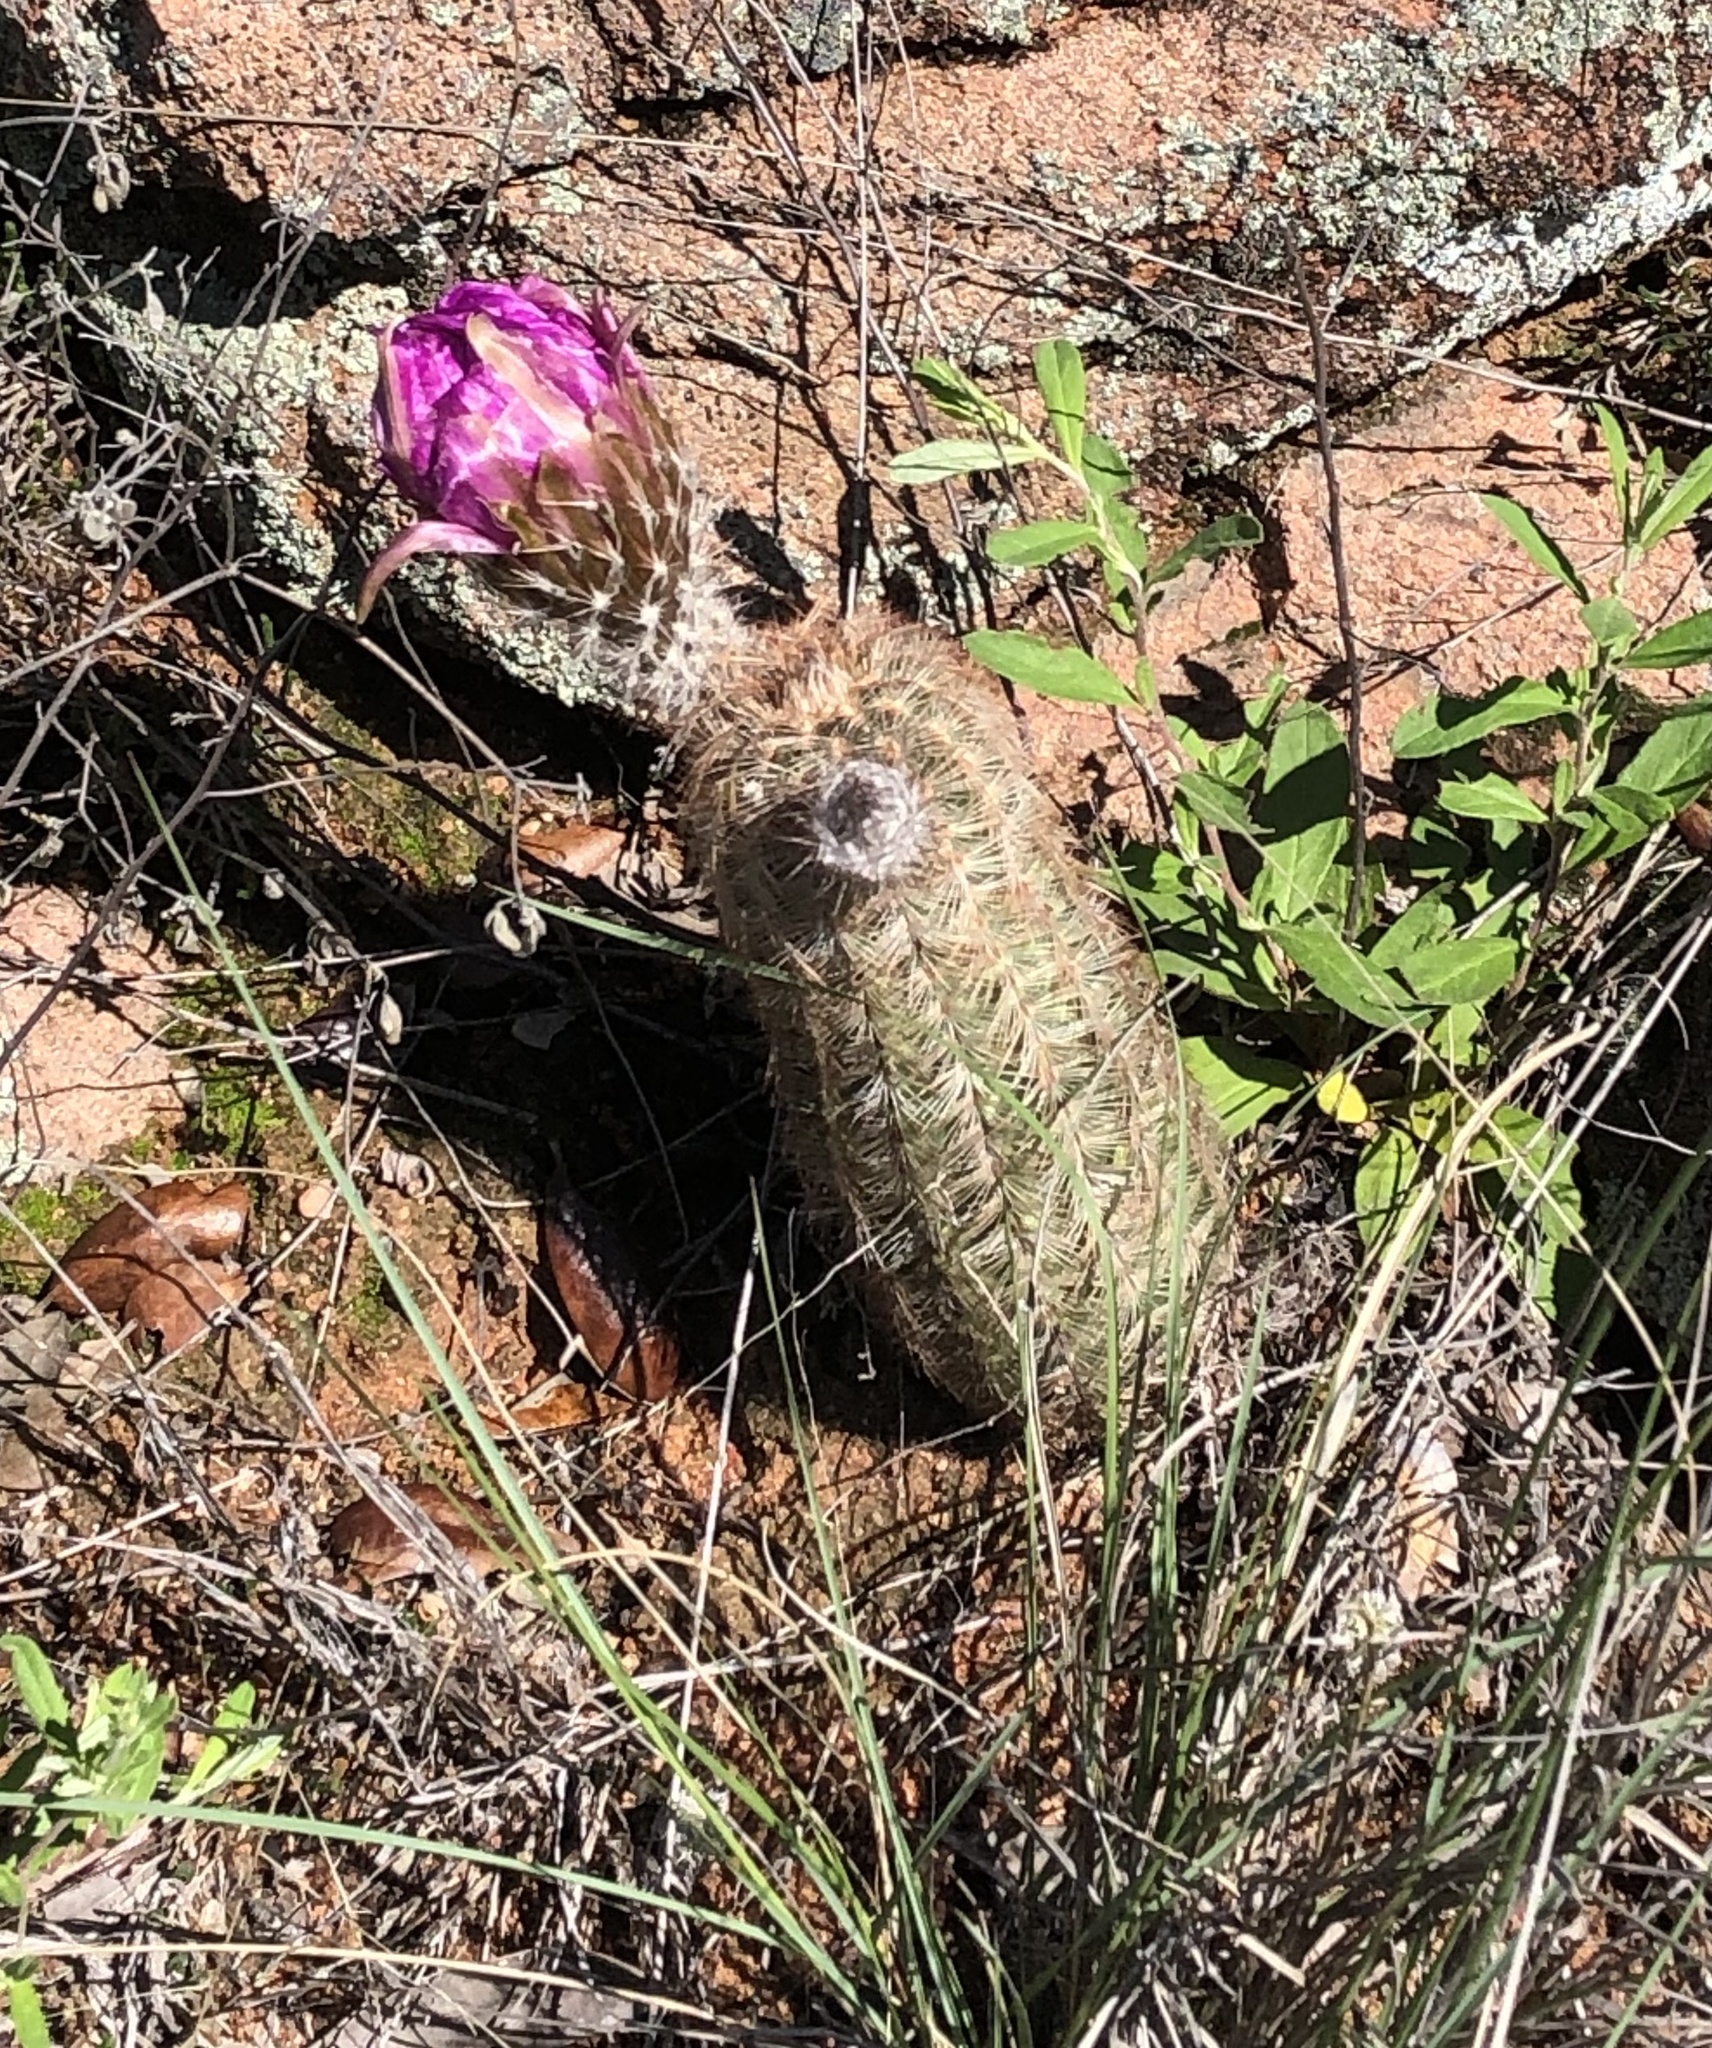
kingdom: Plantae
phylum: Tracheophyta
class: Magnoliopsida
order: Caryophyllales
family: Cactaceae
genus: Echinocereus
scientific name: Echinocereus reichenbachii
